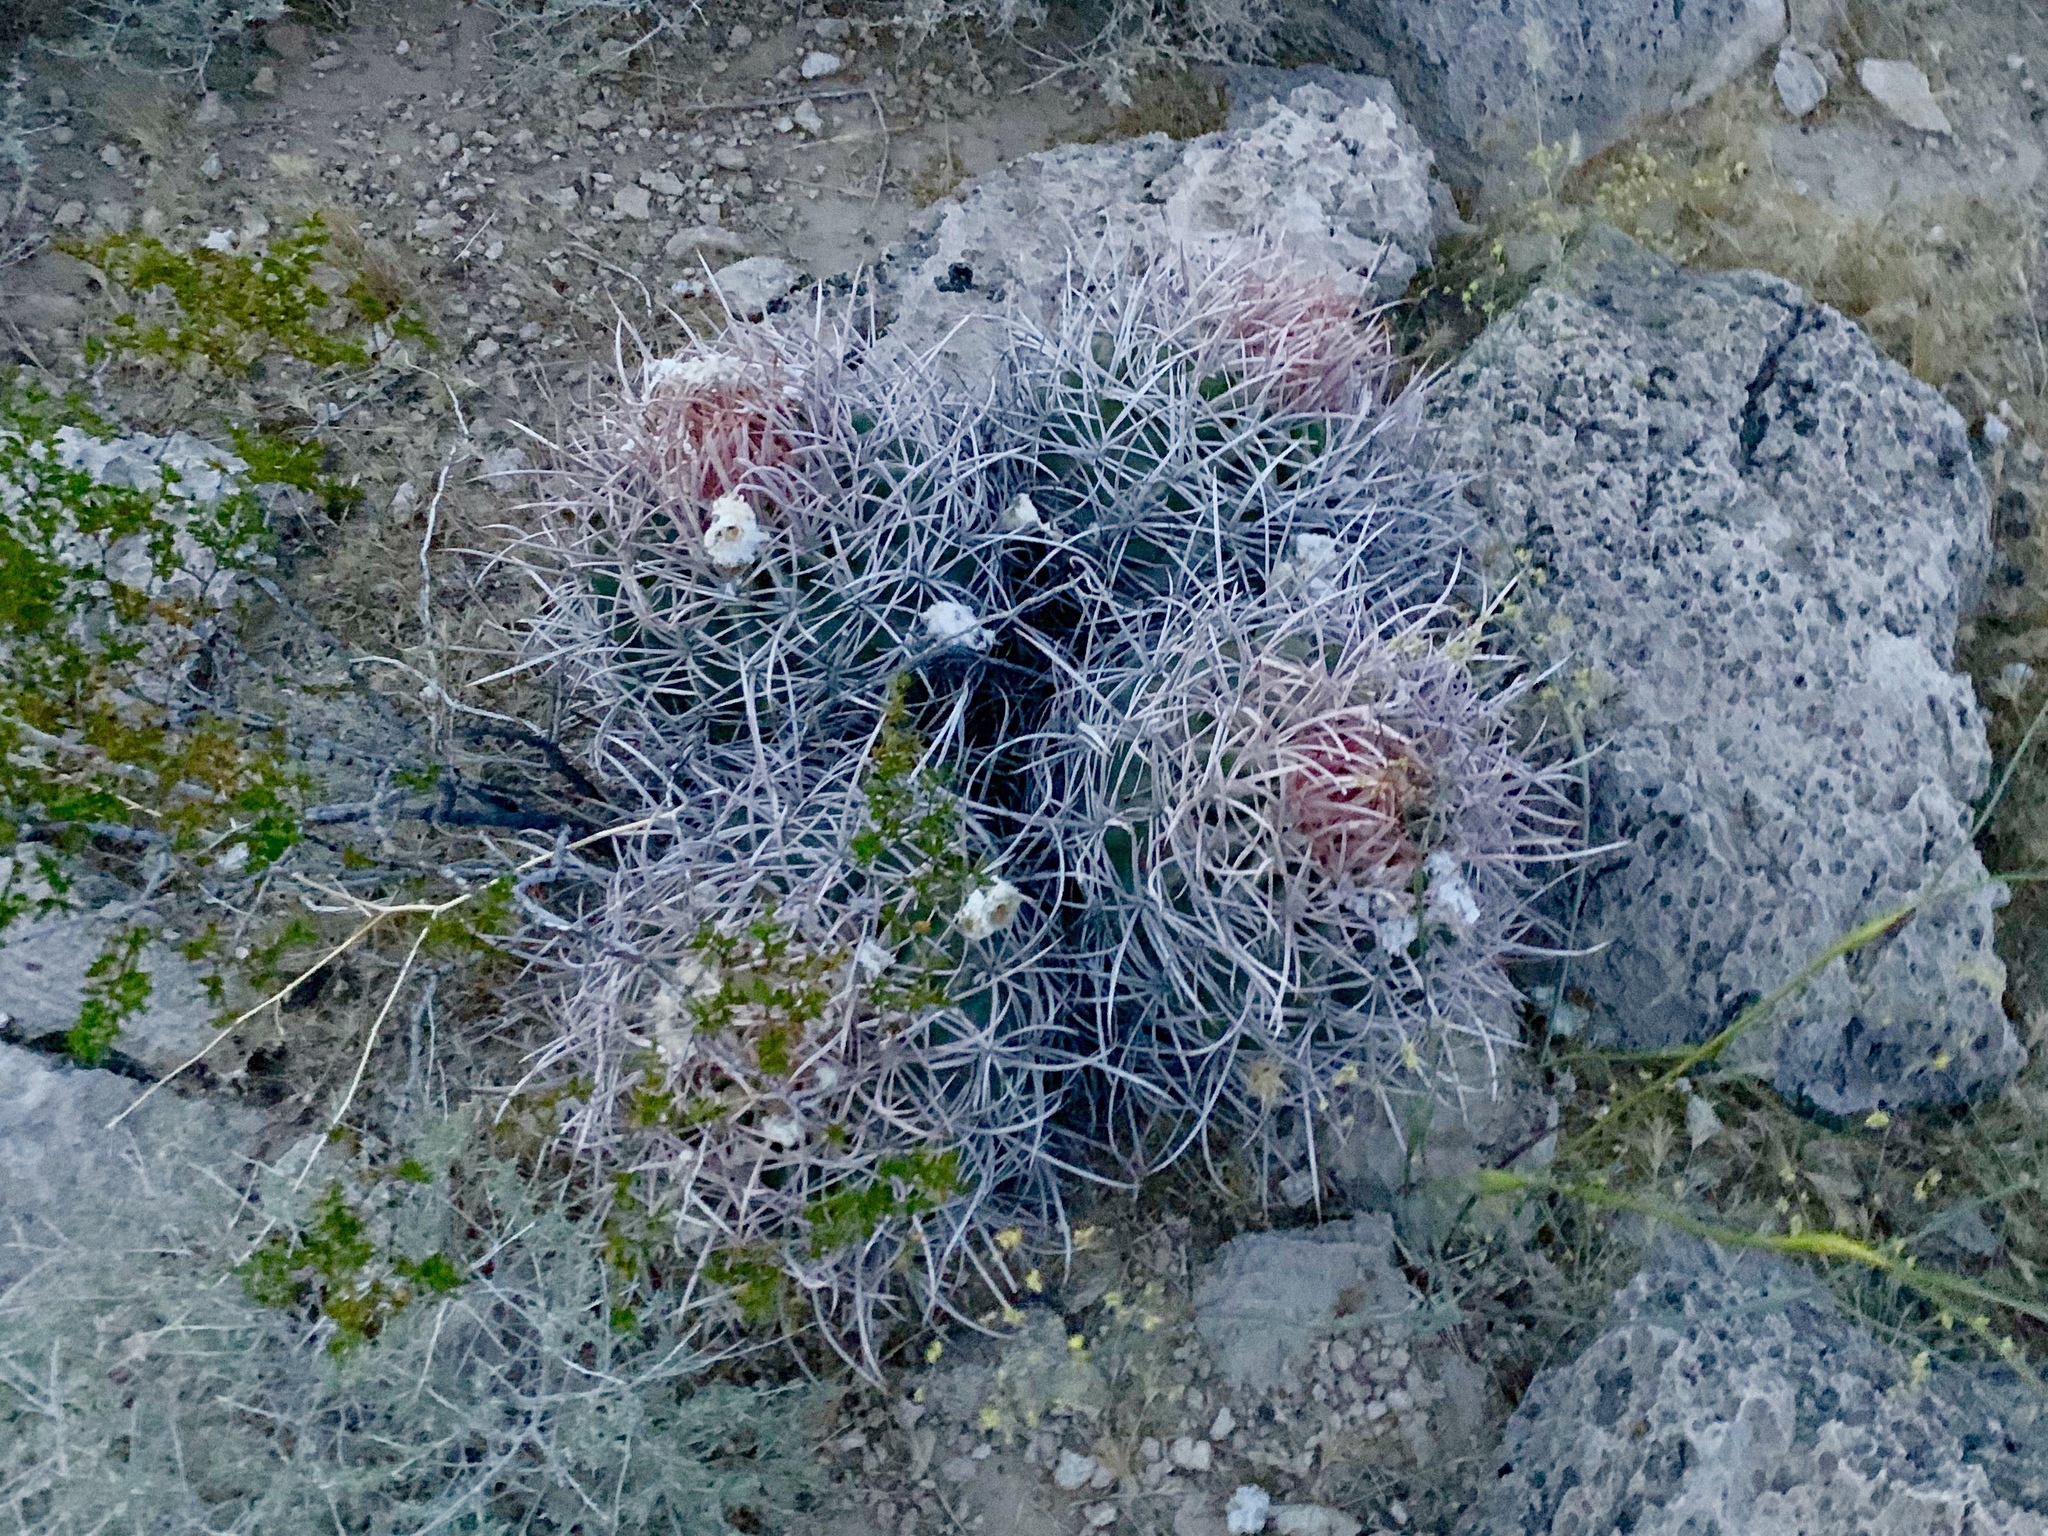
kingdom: Plantae
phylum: Tracheophyta
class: Magnoliopsida
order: Caryophyllales
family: Cactaceae
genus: Echinocactus
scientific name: Echinocactus polycephalus
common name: Cottontop cactus
